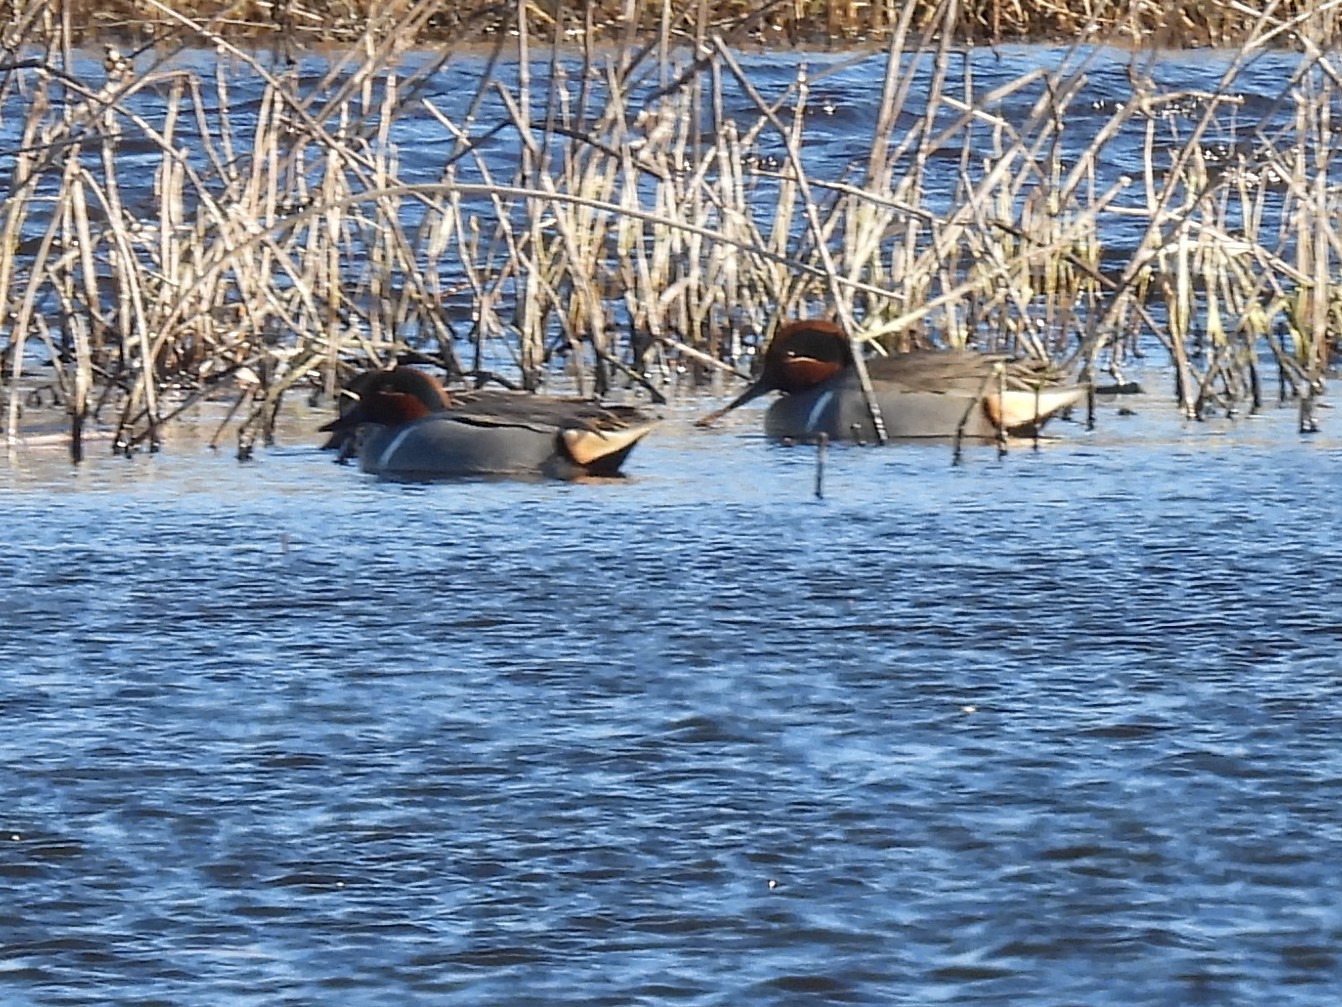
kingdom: Animalia
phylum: Chordata
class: Aves
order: Anseriformes
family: Anatidae
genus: Anas
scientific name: Anas carolinensis
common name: Green-winged teal
